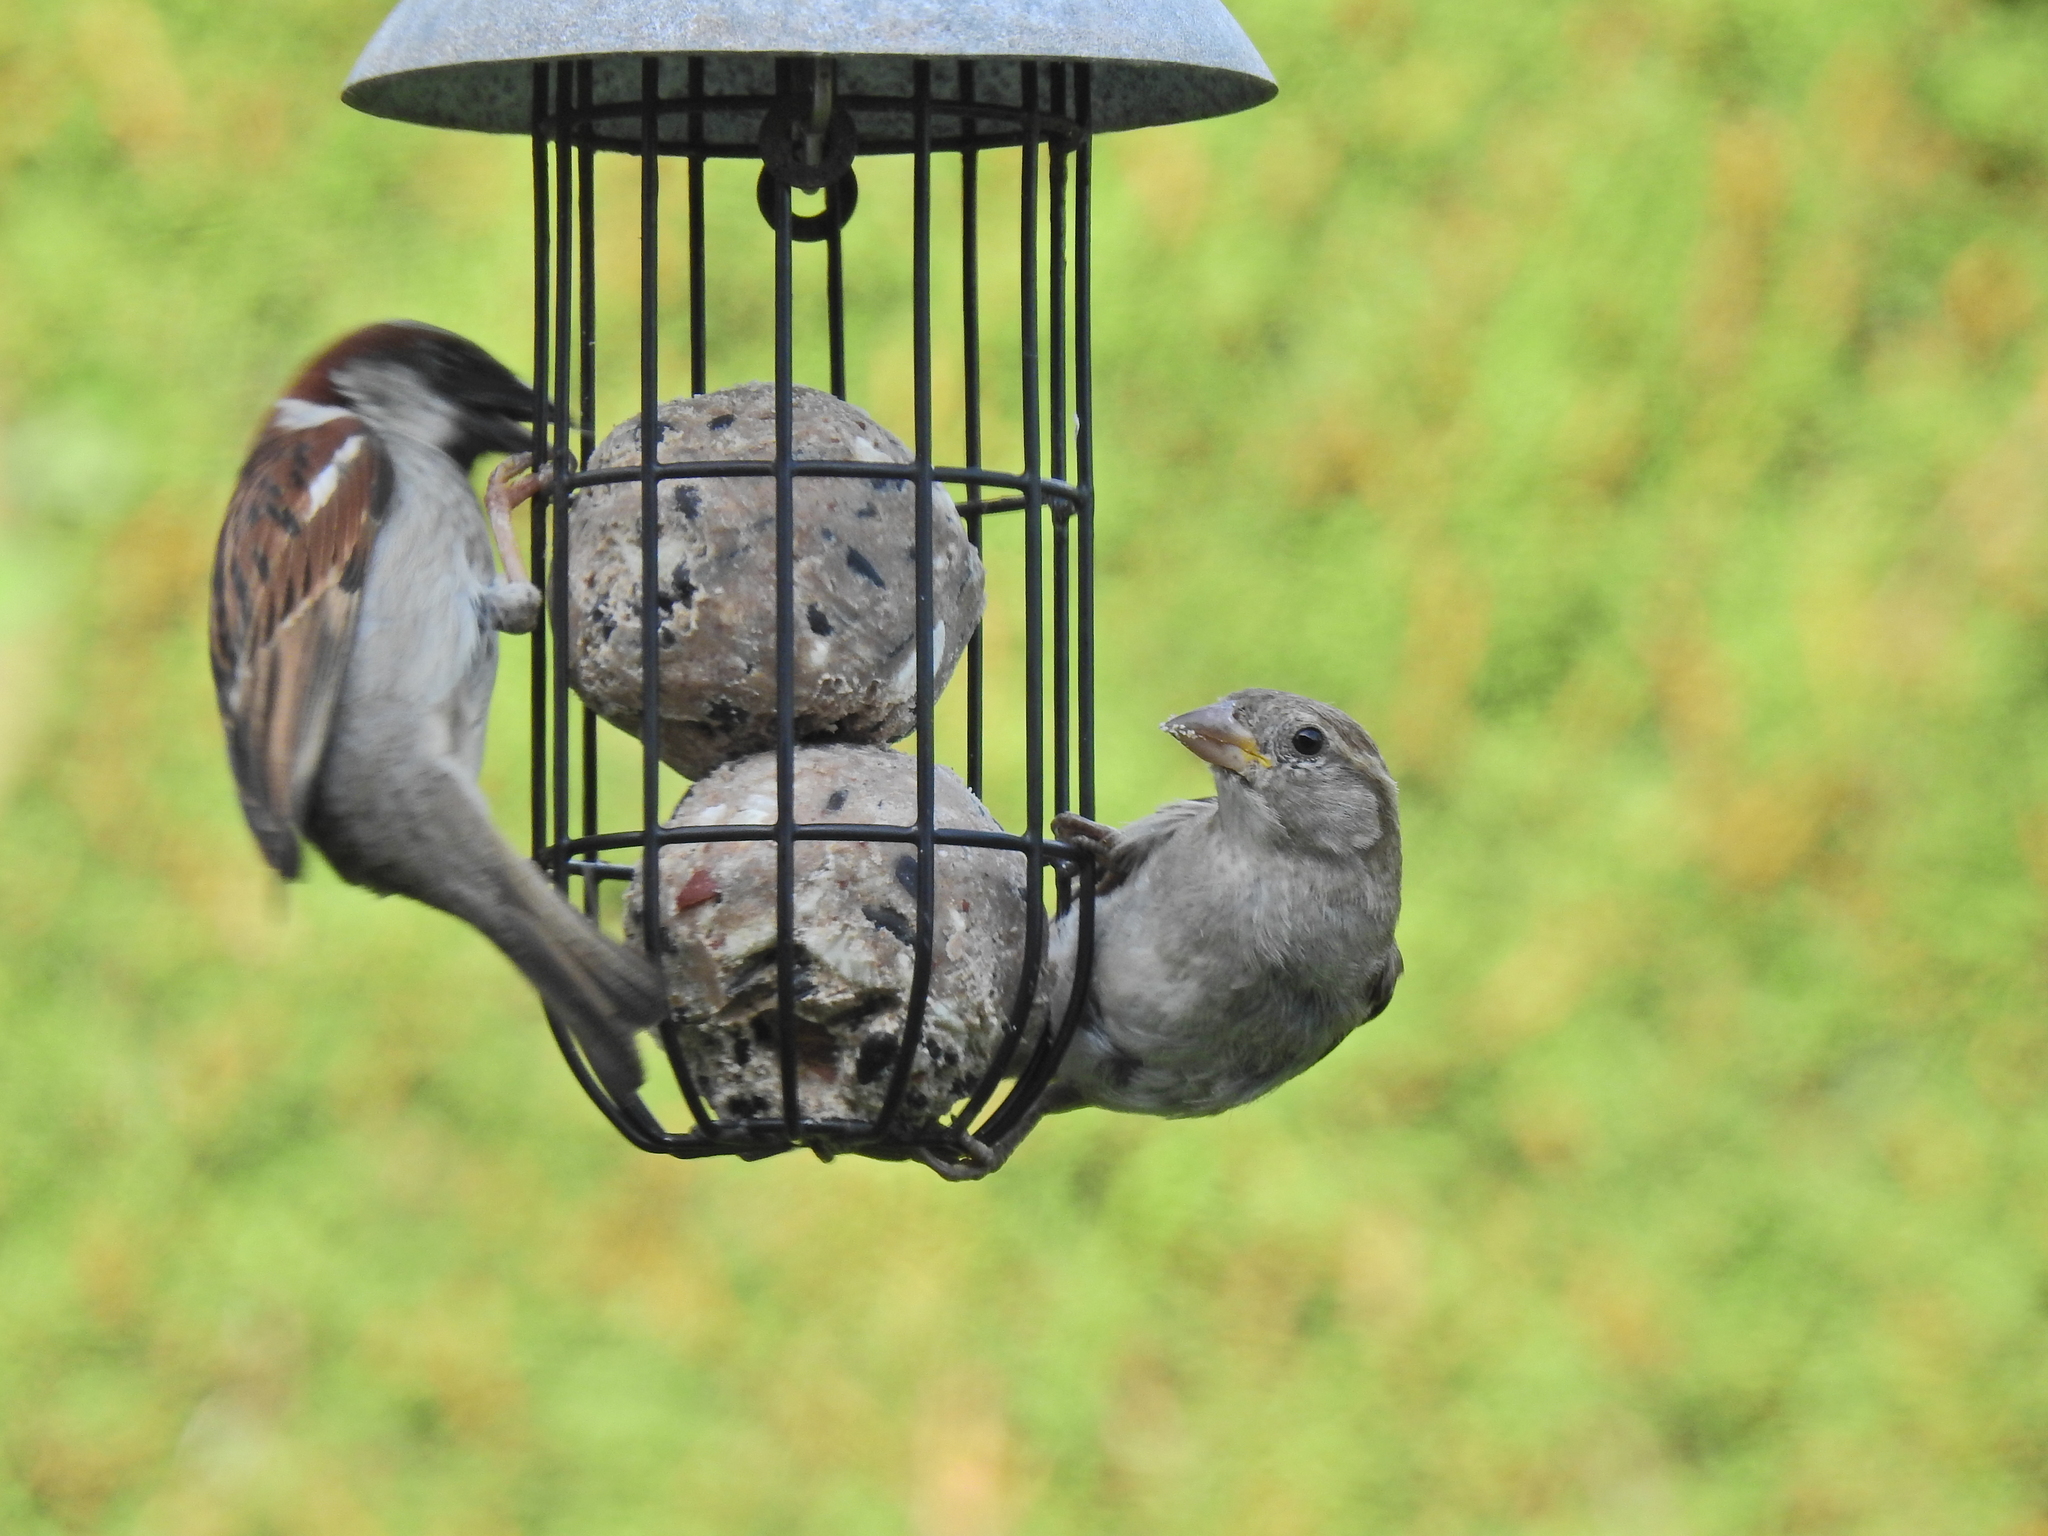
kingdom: Animalia
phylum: Chordata
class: Aves
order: Passeriformes
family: Passeridae
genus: Passer
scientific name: Passer domesticus
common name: House sparrow
